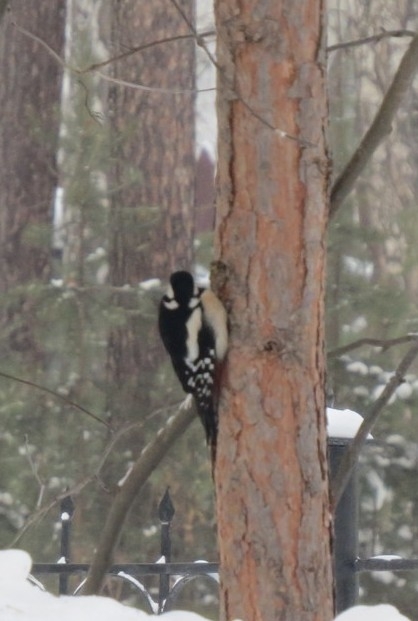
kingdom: Animalia
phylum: Chordata
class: Aves
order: Piciformes
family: Picidae
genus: Dendrocopos
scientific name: Dendrocopos major
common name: Great spotted woodpecker
